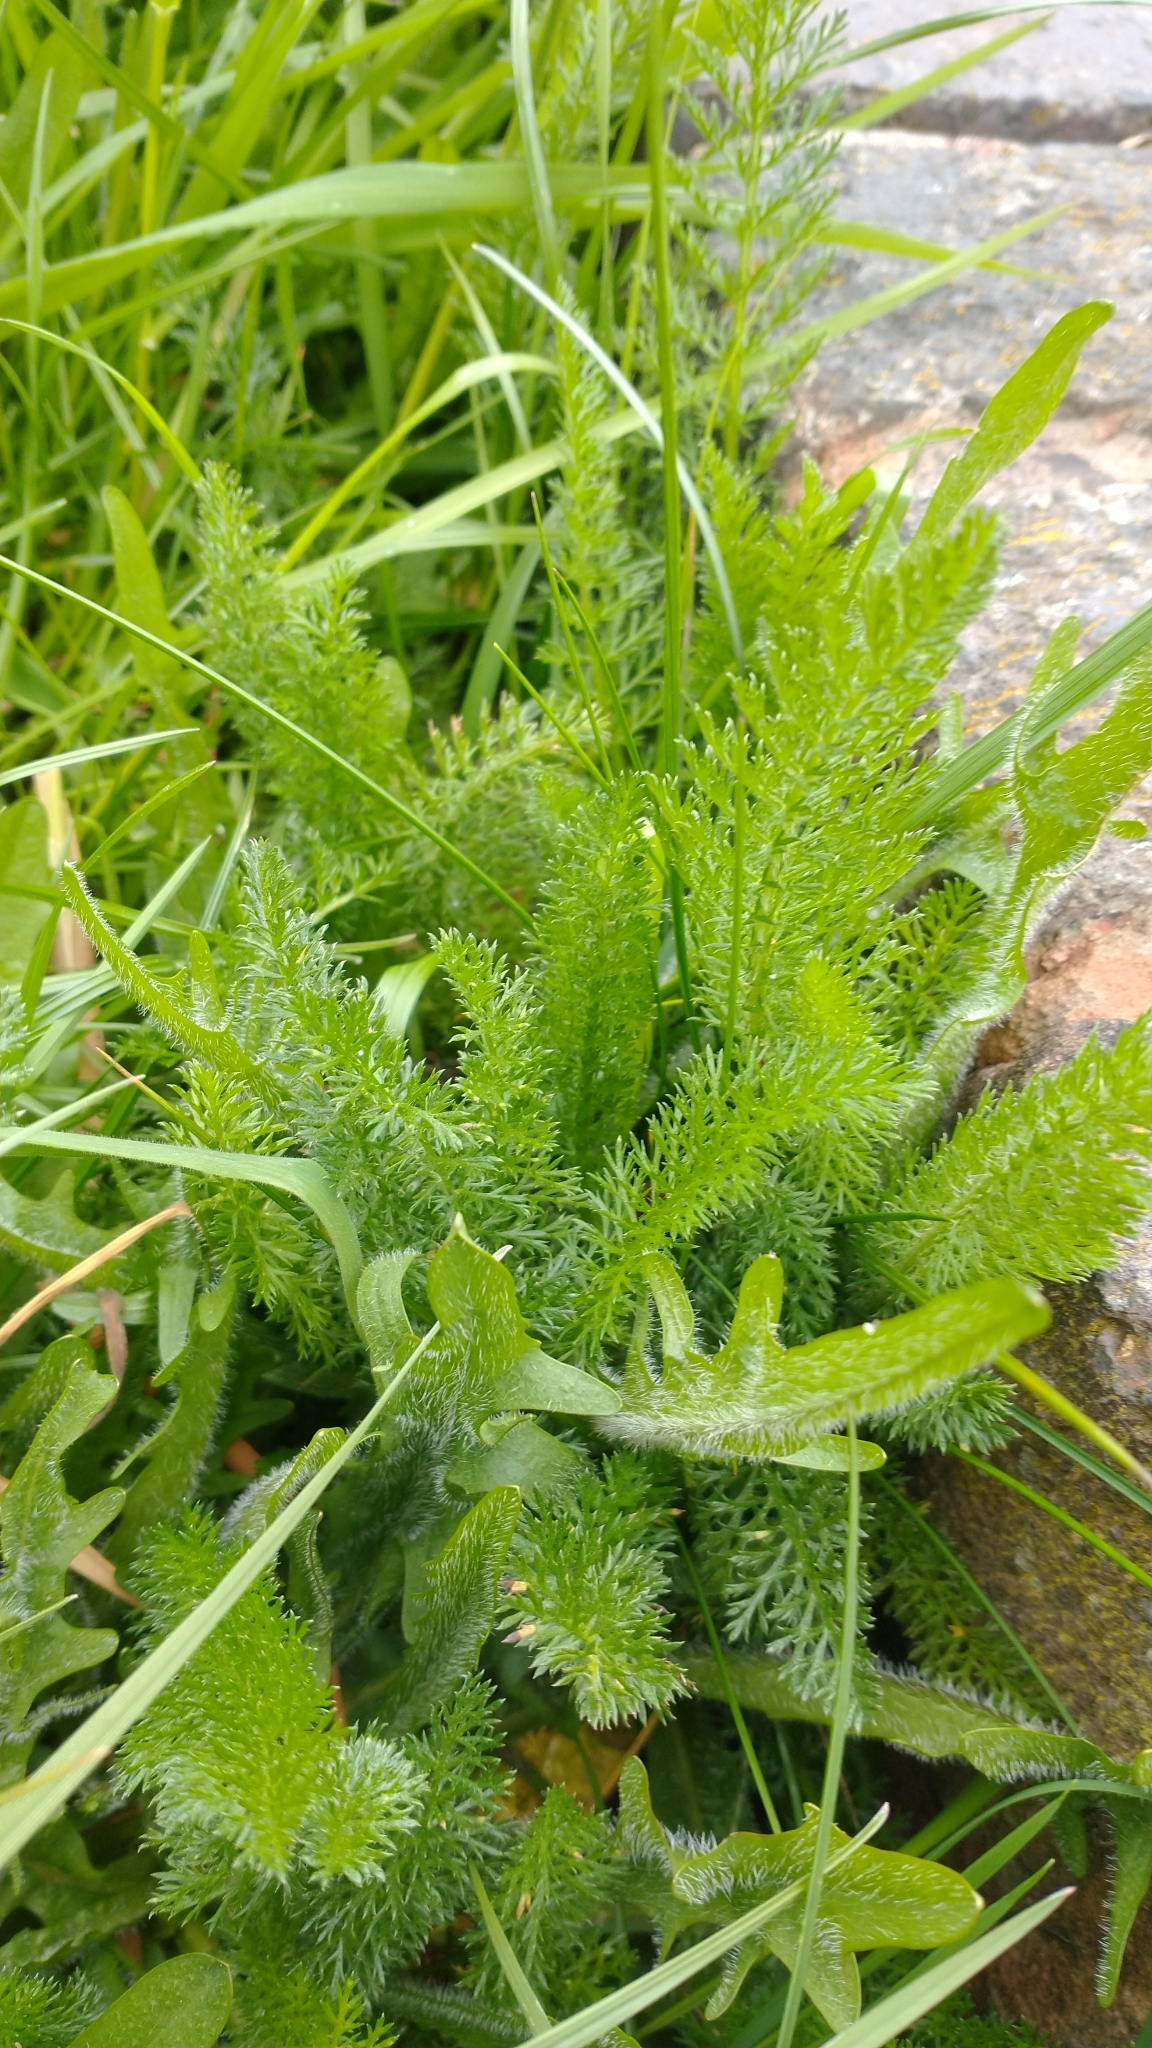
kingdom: Plantae
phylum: Tracheophyta
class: Magnoliopsida
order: Asterales
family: Asteraceae
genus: Achillea
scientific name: Achillea millefolium
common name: Yarrow
